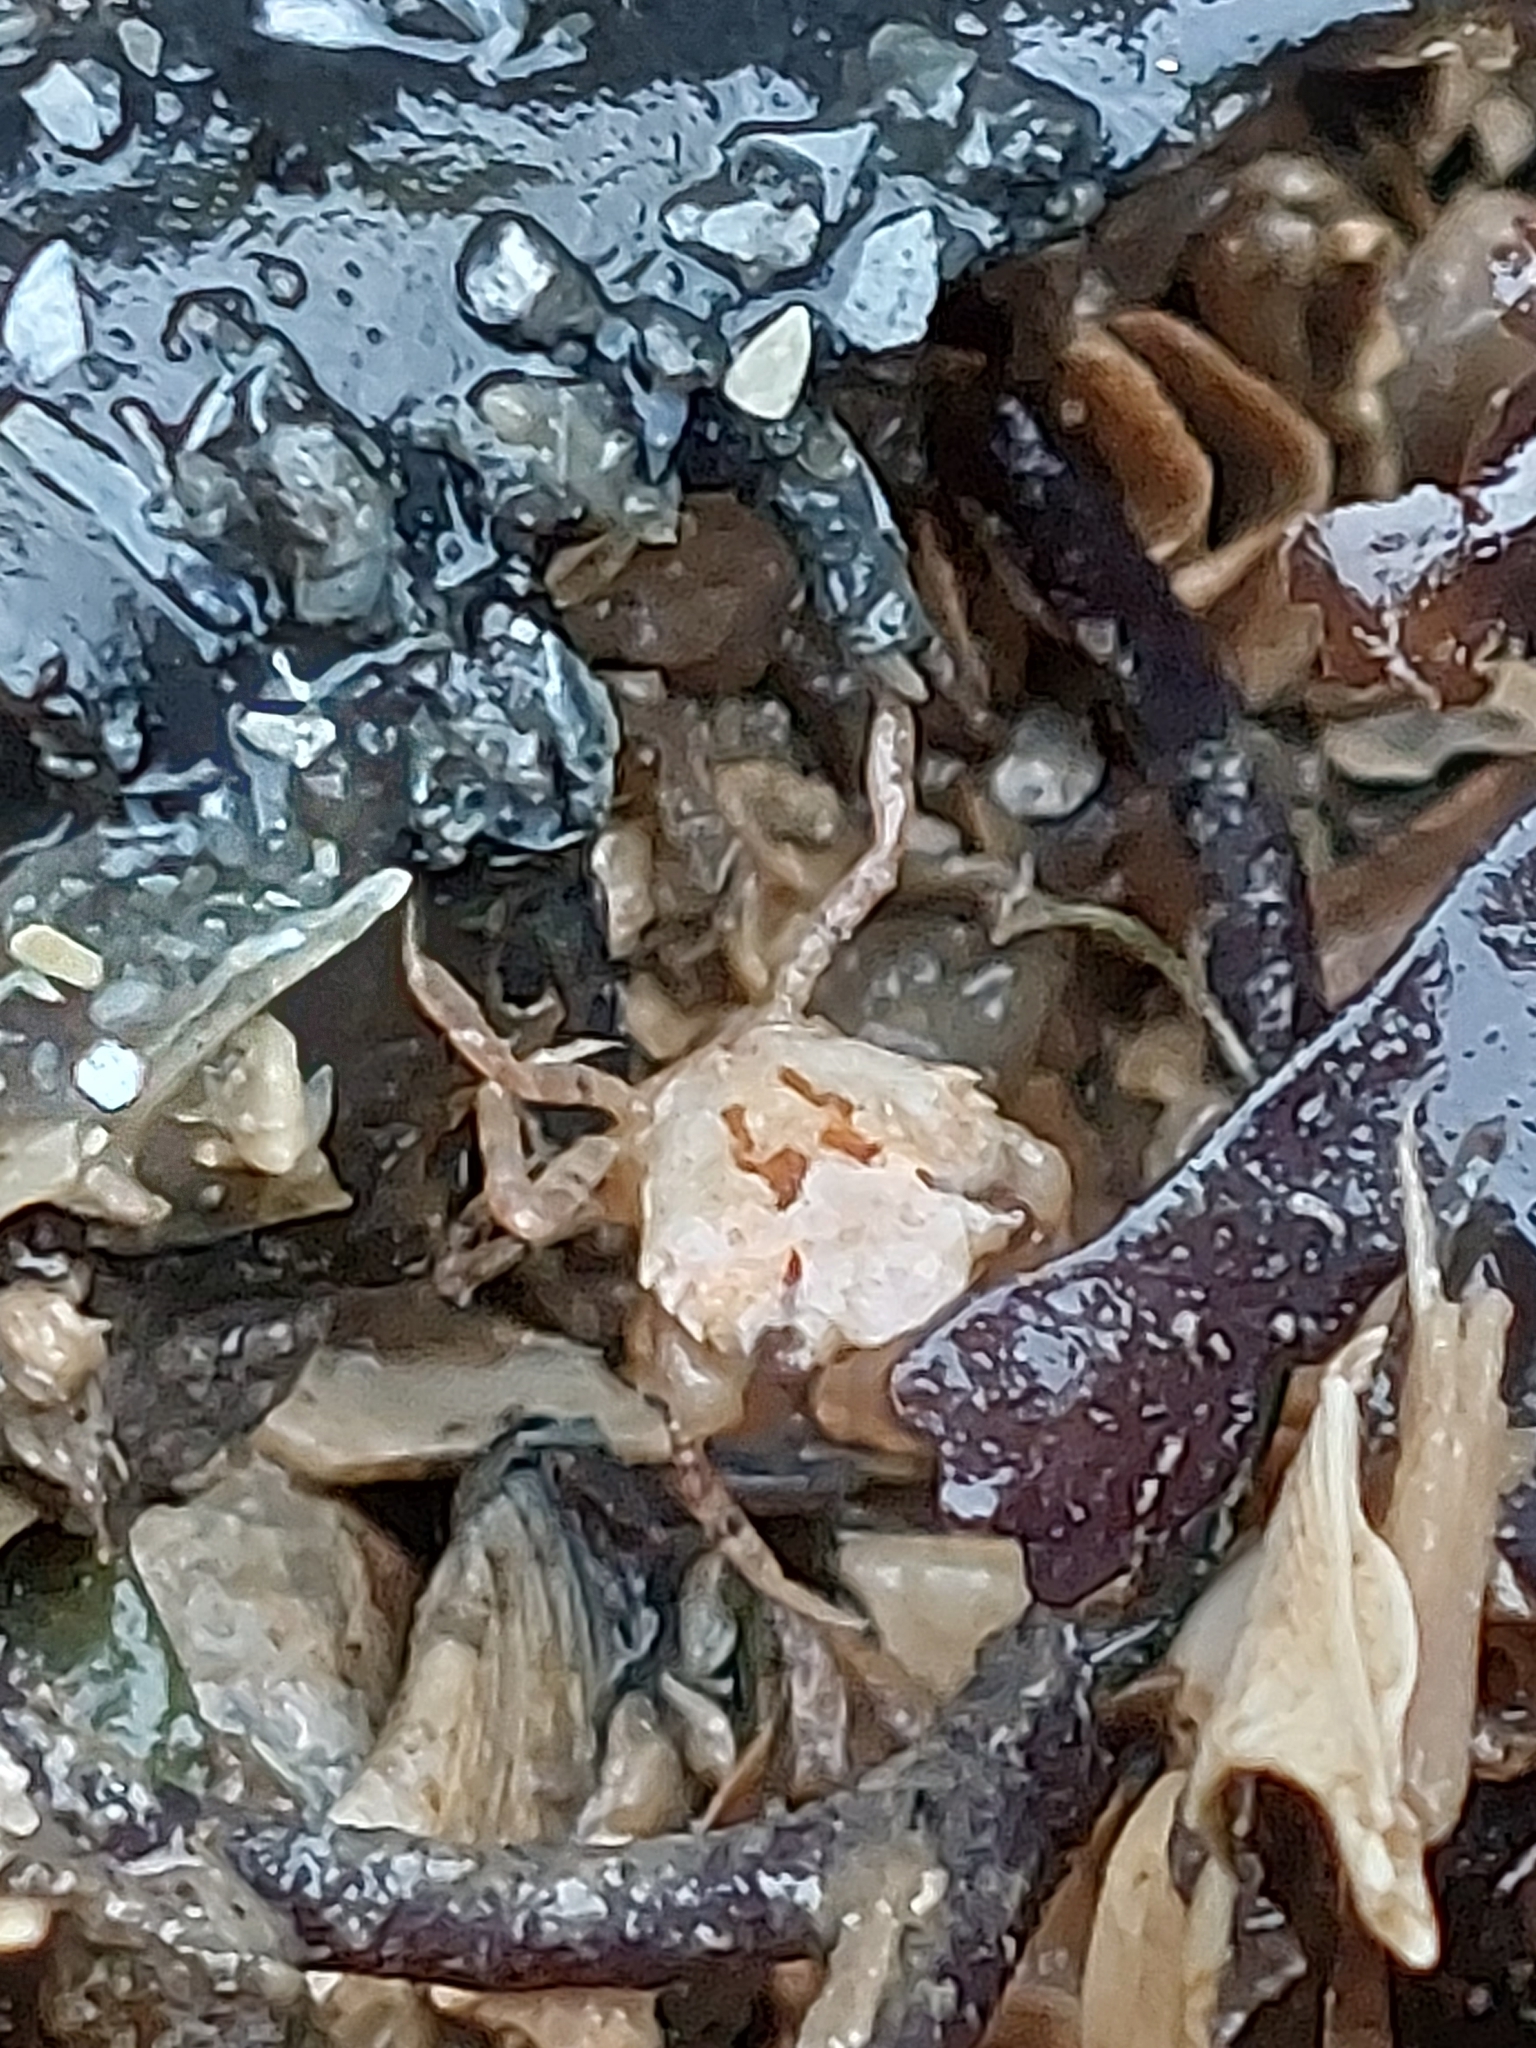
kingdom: Animalia
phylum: Arthropoda
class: Malacostraca
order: Decapoda
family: Carcinidae
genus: Carcinus
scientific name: Carcinus maenas
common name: European green crab
